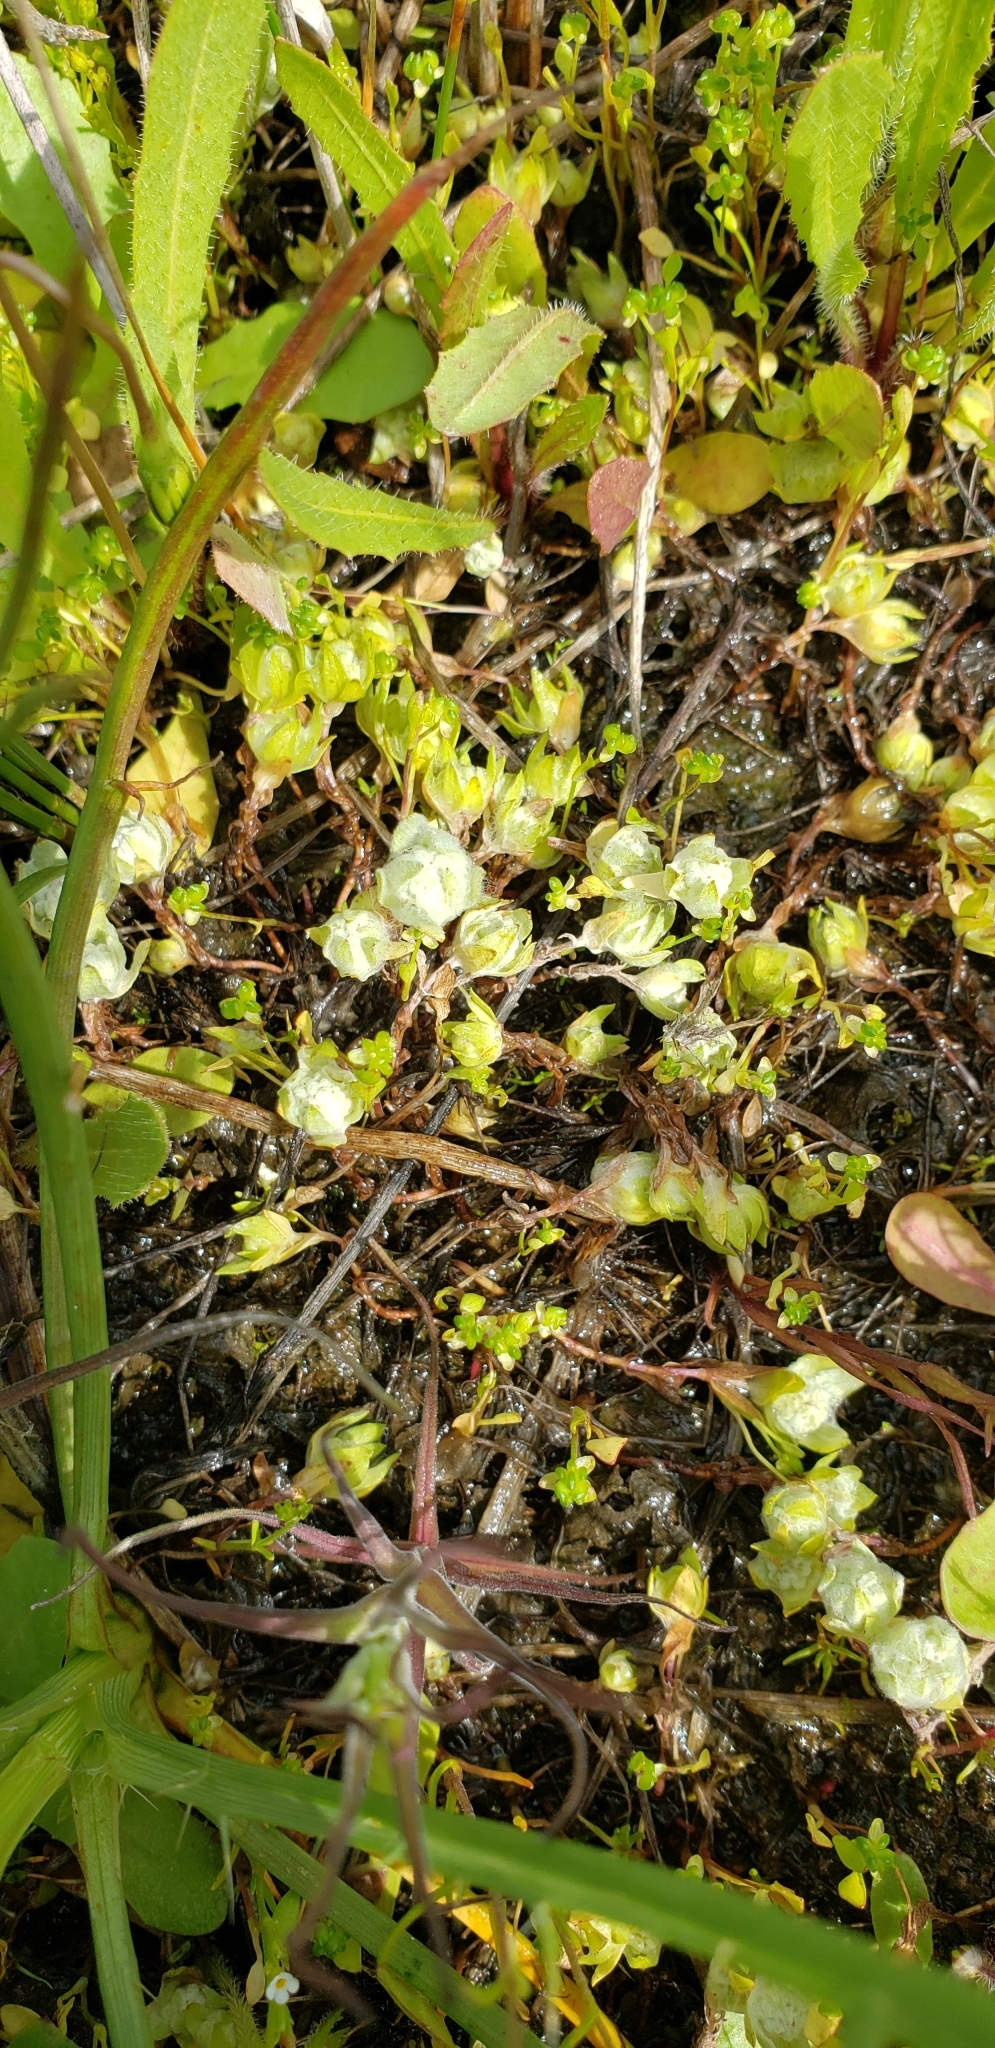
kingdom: Plantae
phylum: Tracheophyta
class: Magnoliopsida
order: Asterales
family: Asteraceae
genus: Psilocarphus
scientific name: Psilocarphus brevissimus
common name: Dwarf woollyheads
